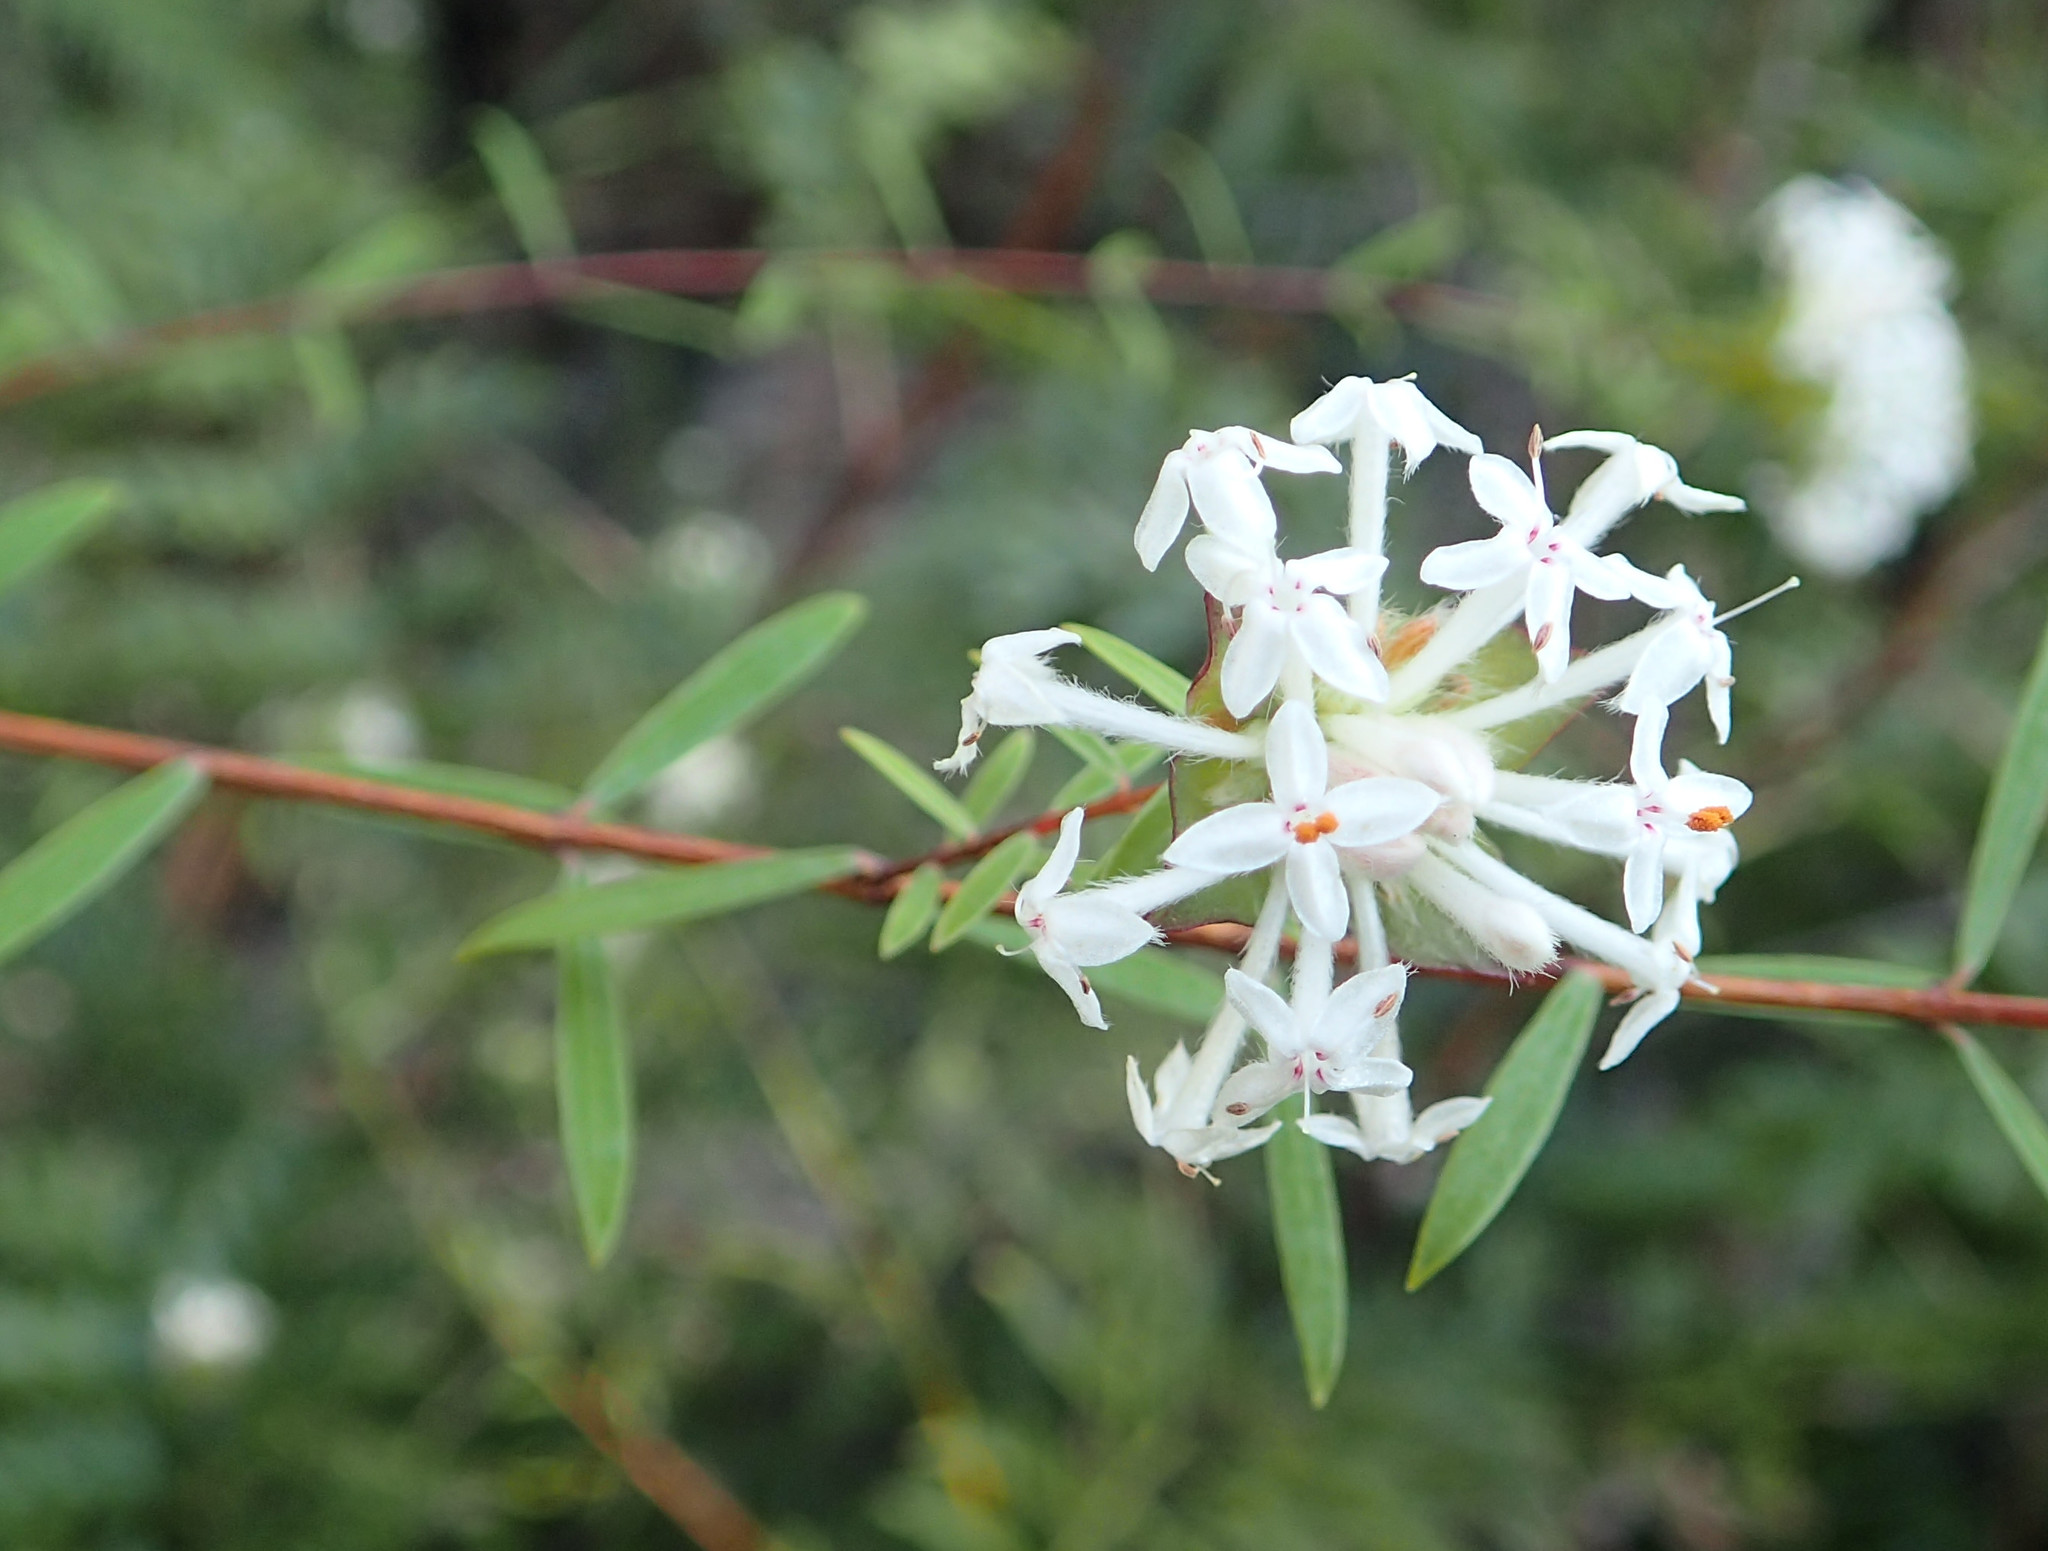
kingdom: Plantae
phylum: Tracheophyta
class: Magnoliopsida
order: Malvales
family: Thymelaeaceae
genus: Pimelea
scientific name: Pimelea linifolia
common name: Queen-of-the-bush
